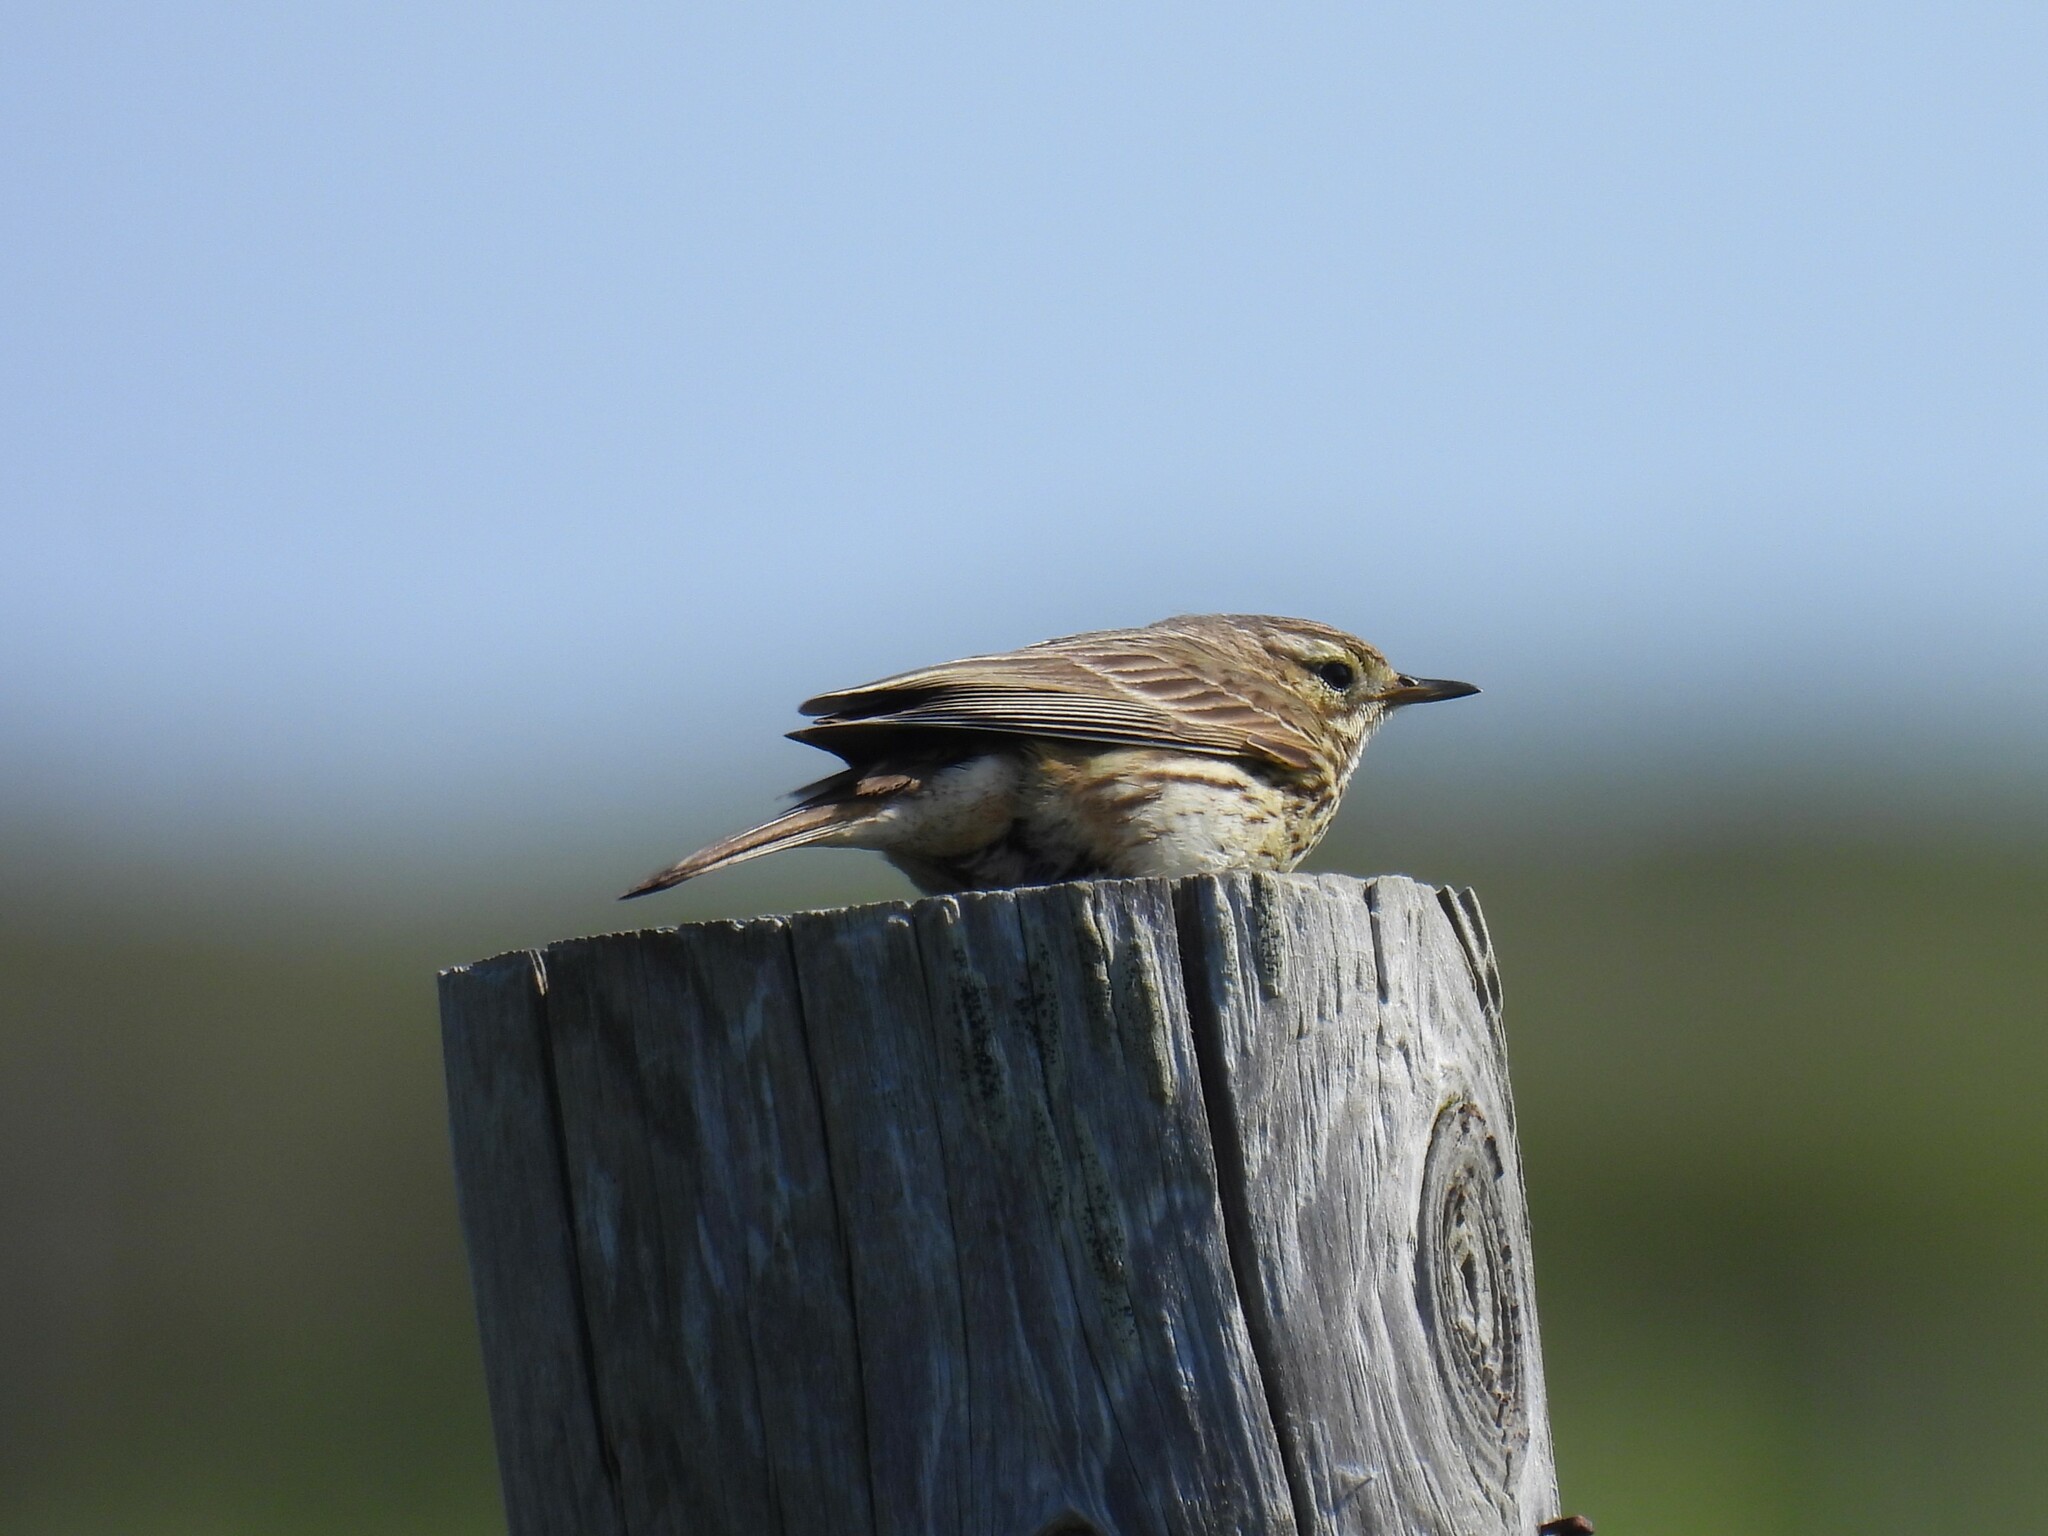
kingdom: Animalia
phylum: Chordata
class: Aves
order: Passeriformes
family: Motacillidae
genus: Anthus
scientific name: Anthus pratensis
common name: Meadow pipit
